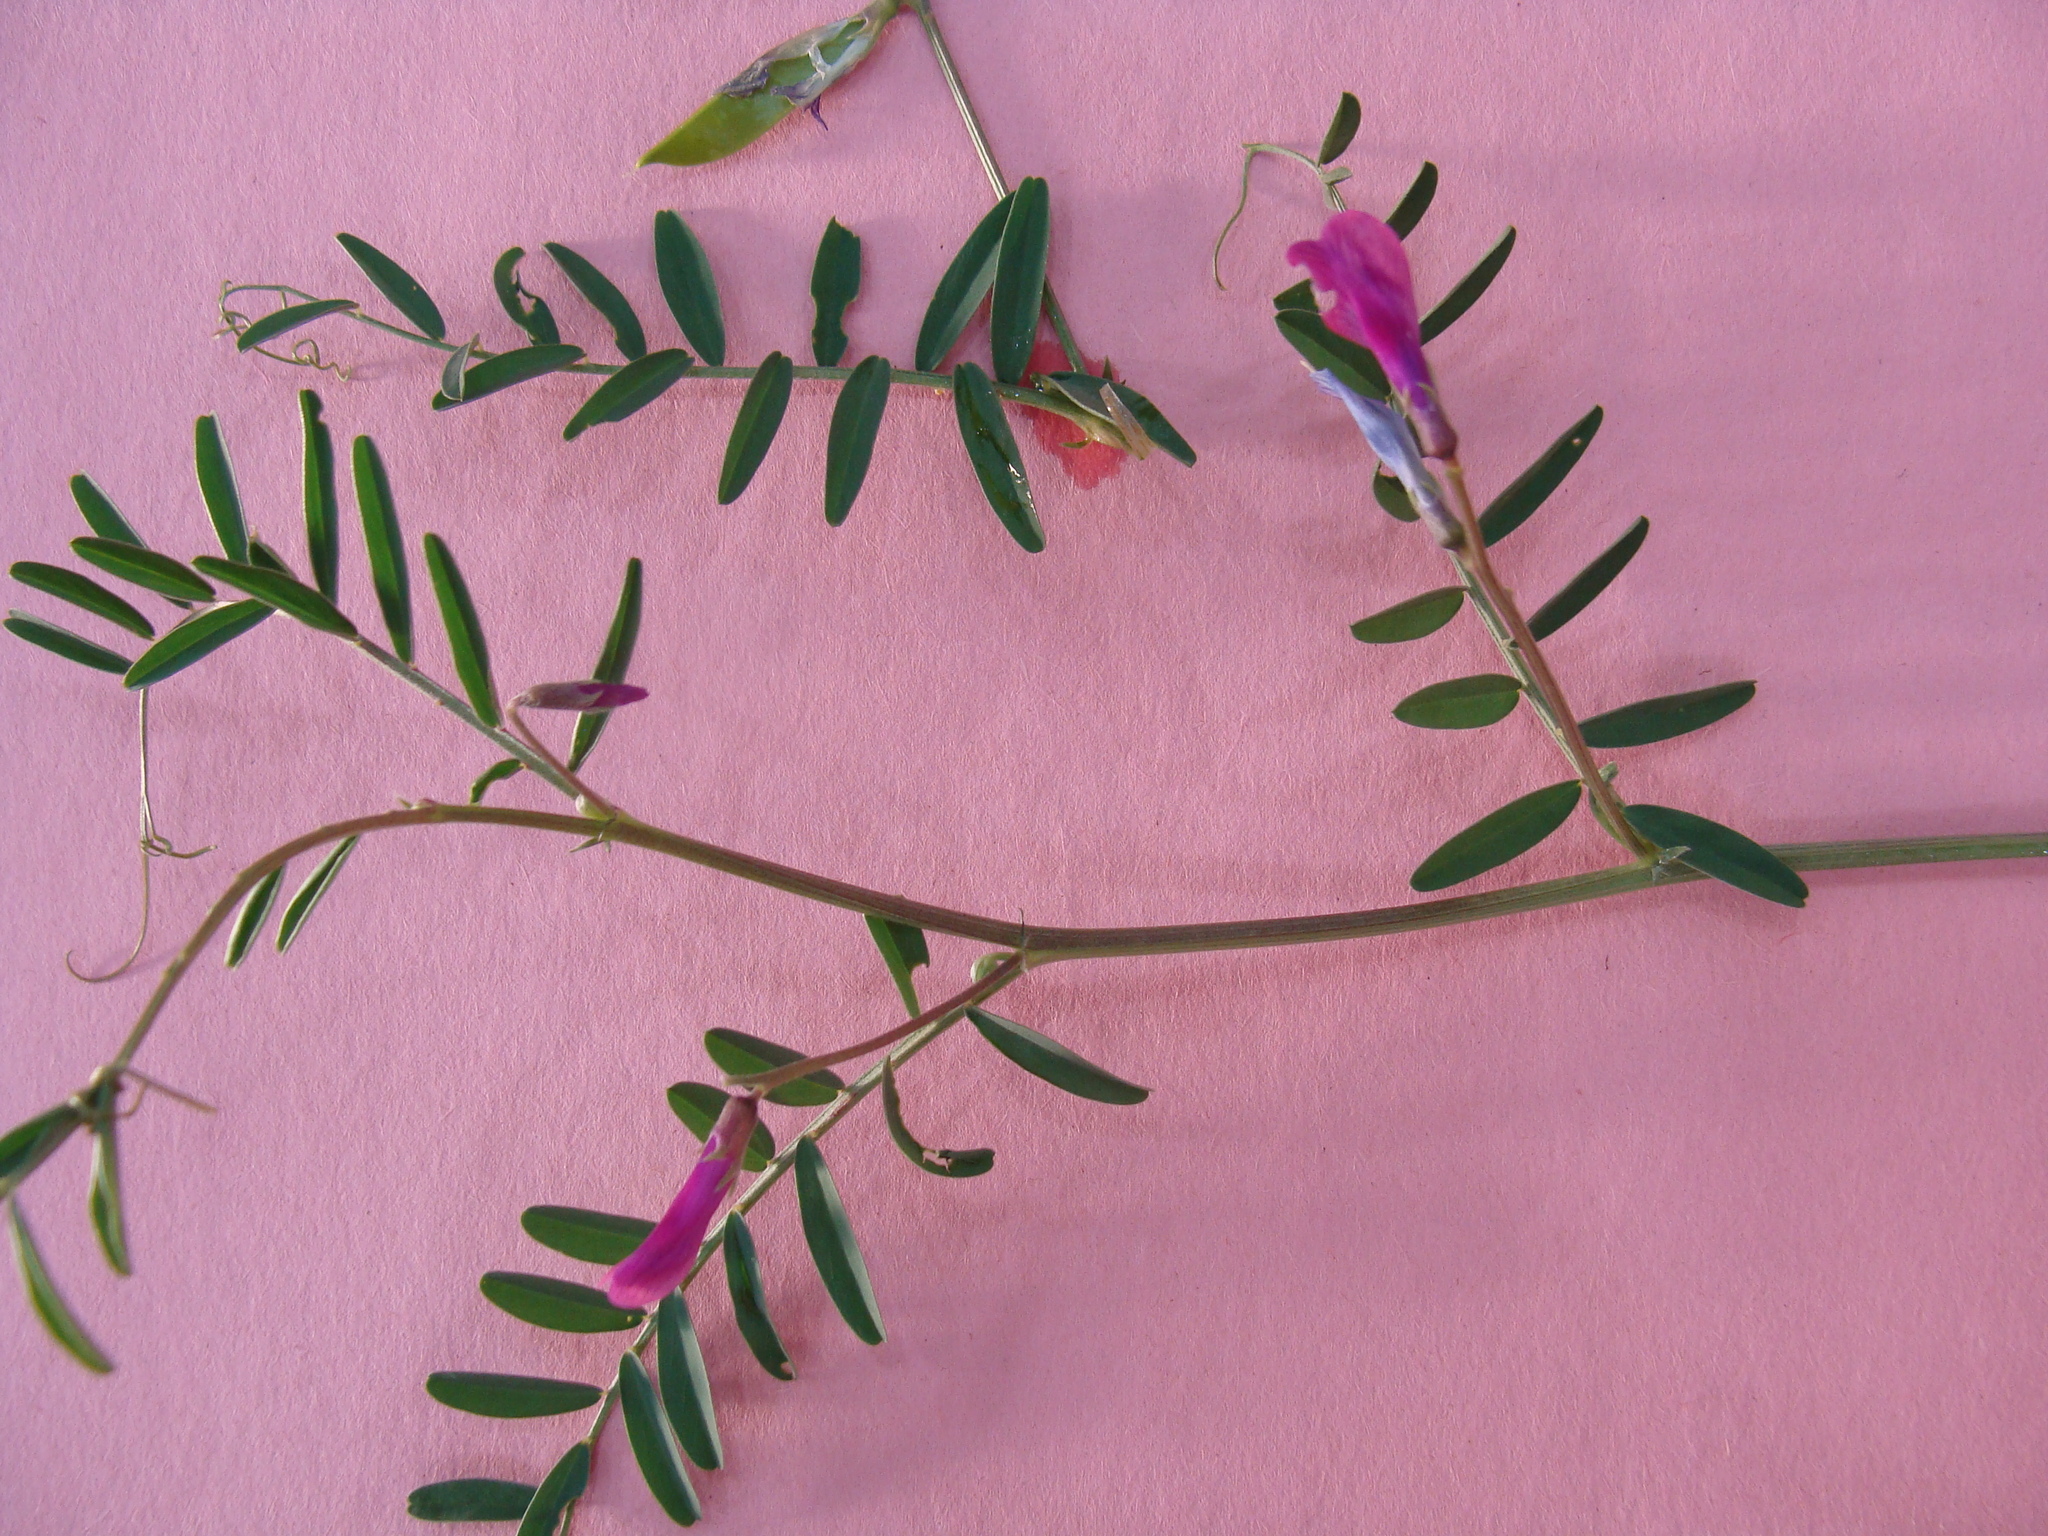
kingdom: Plantae
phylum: Tracheophyta
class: Magnoliopsida
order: Fabales
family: Fabaceae
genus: Vicia
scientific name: Vicia monantha
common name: Barn vetch
